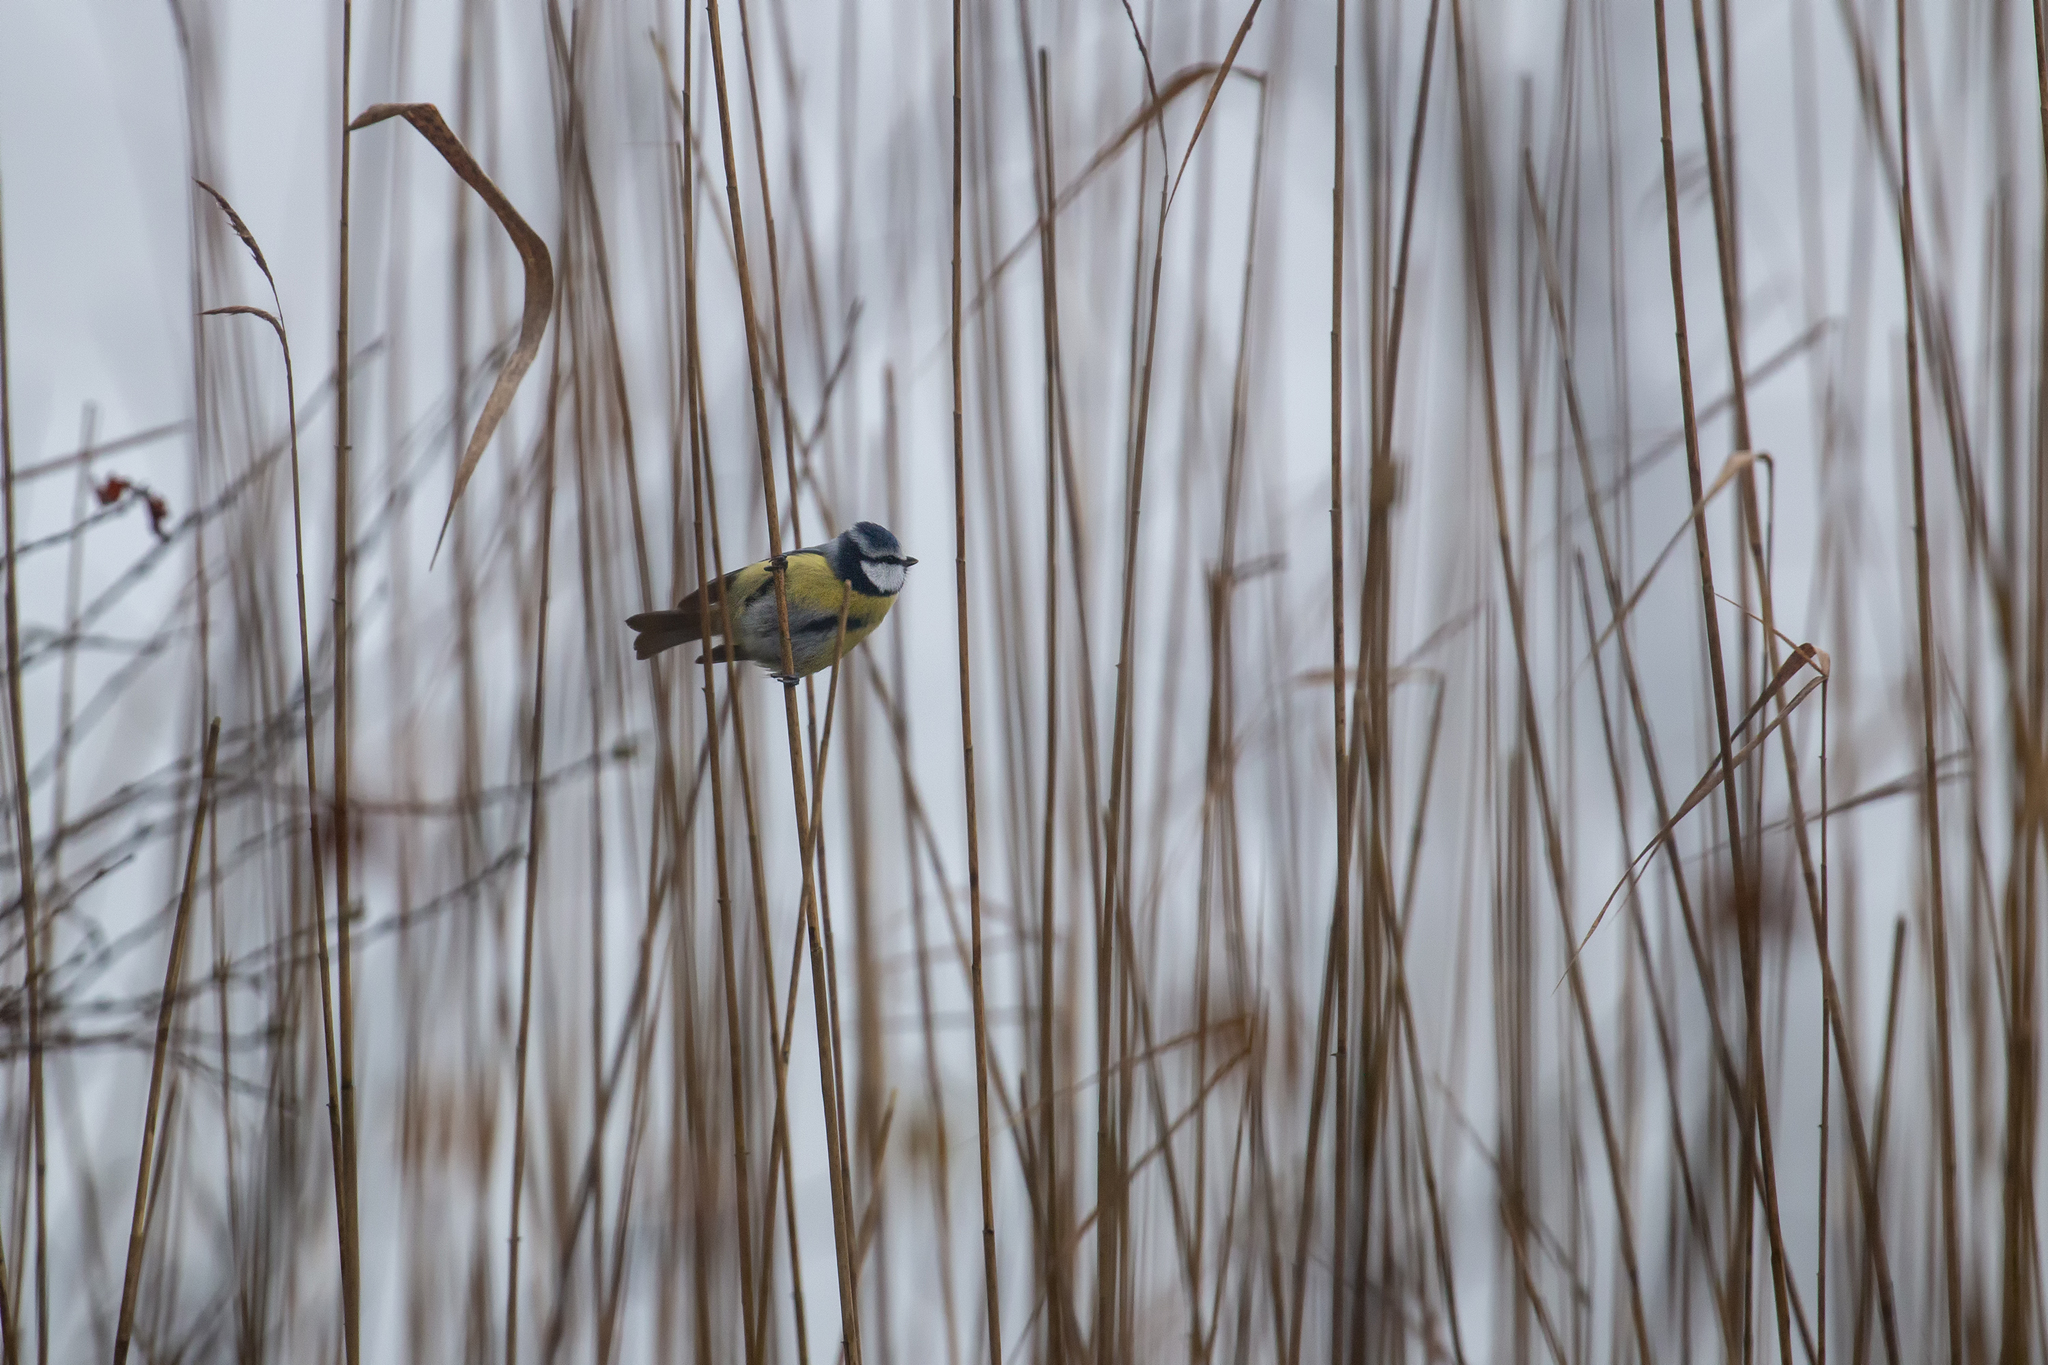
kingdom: Animalia
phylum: Chordata
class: Aves
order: Passeriformes
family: Paridae
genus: Cyanistes
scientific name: Cyanistes caeruleus
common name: Eurasian blue tit
